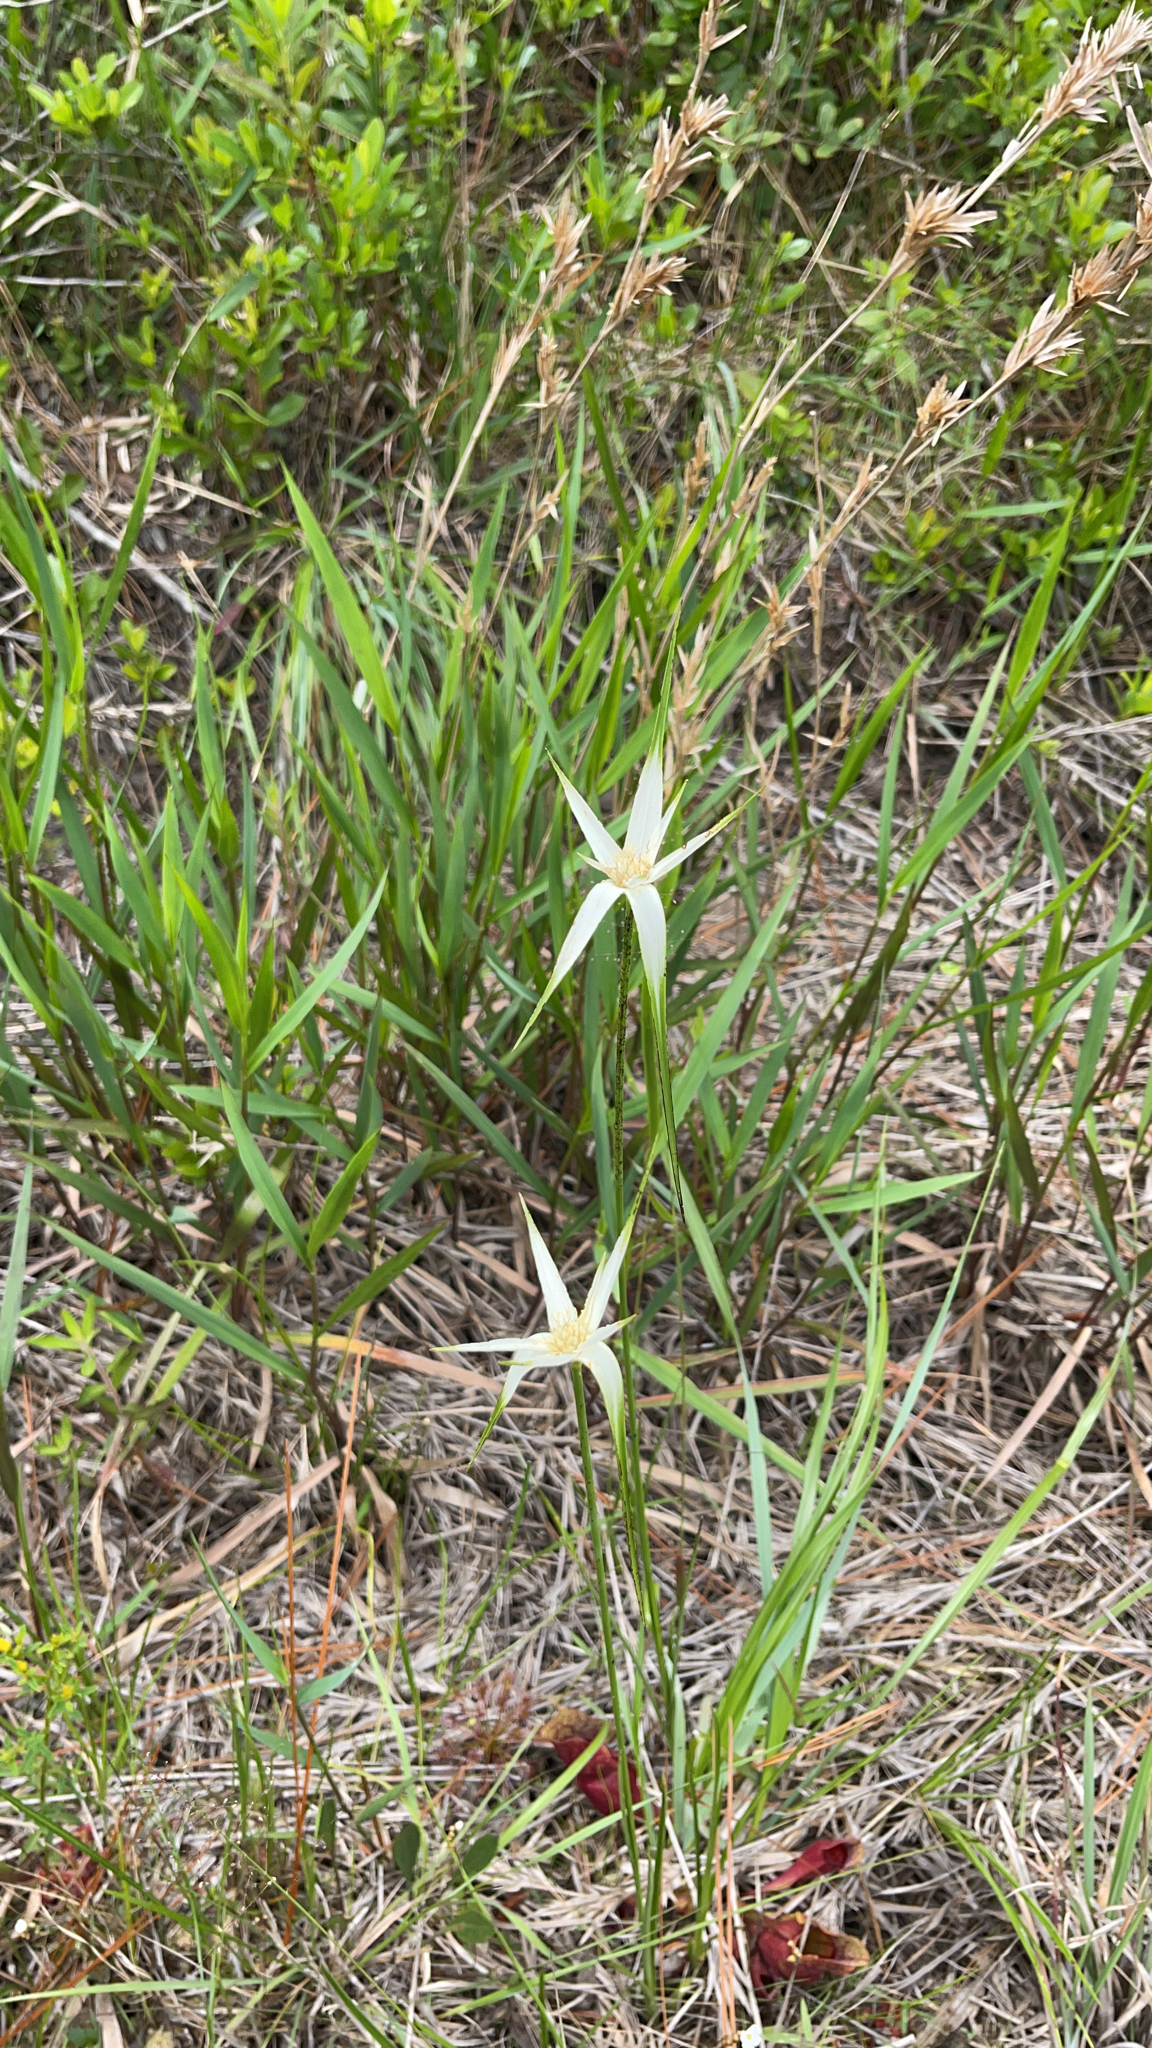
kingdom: Plantae
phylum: Tracheophyta
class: Liliopsida
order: Poales
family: Cyperaceae
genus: Rhynchospora
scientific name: Rhynchospora colorata
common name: Star sedge
